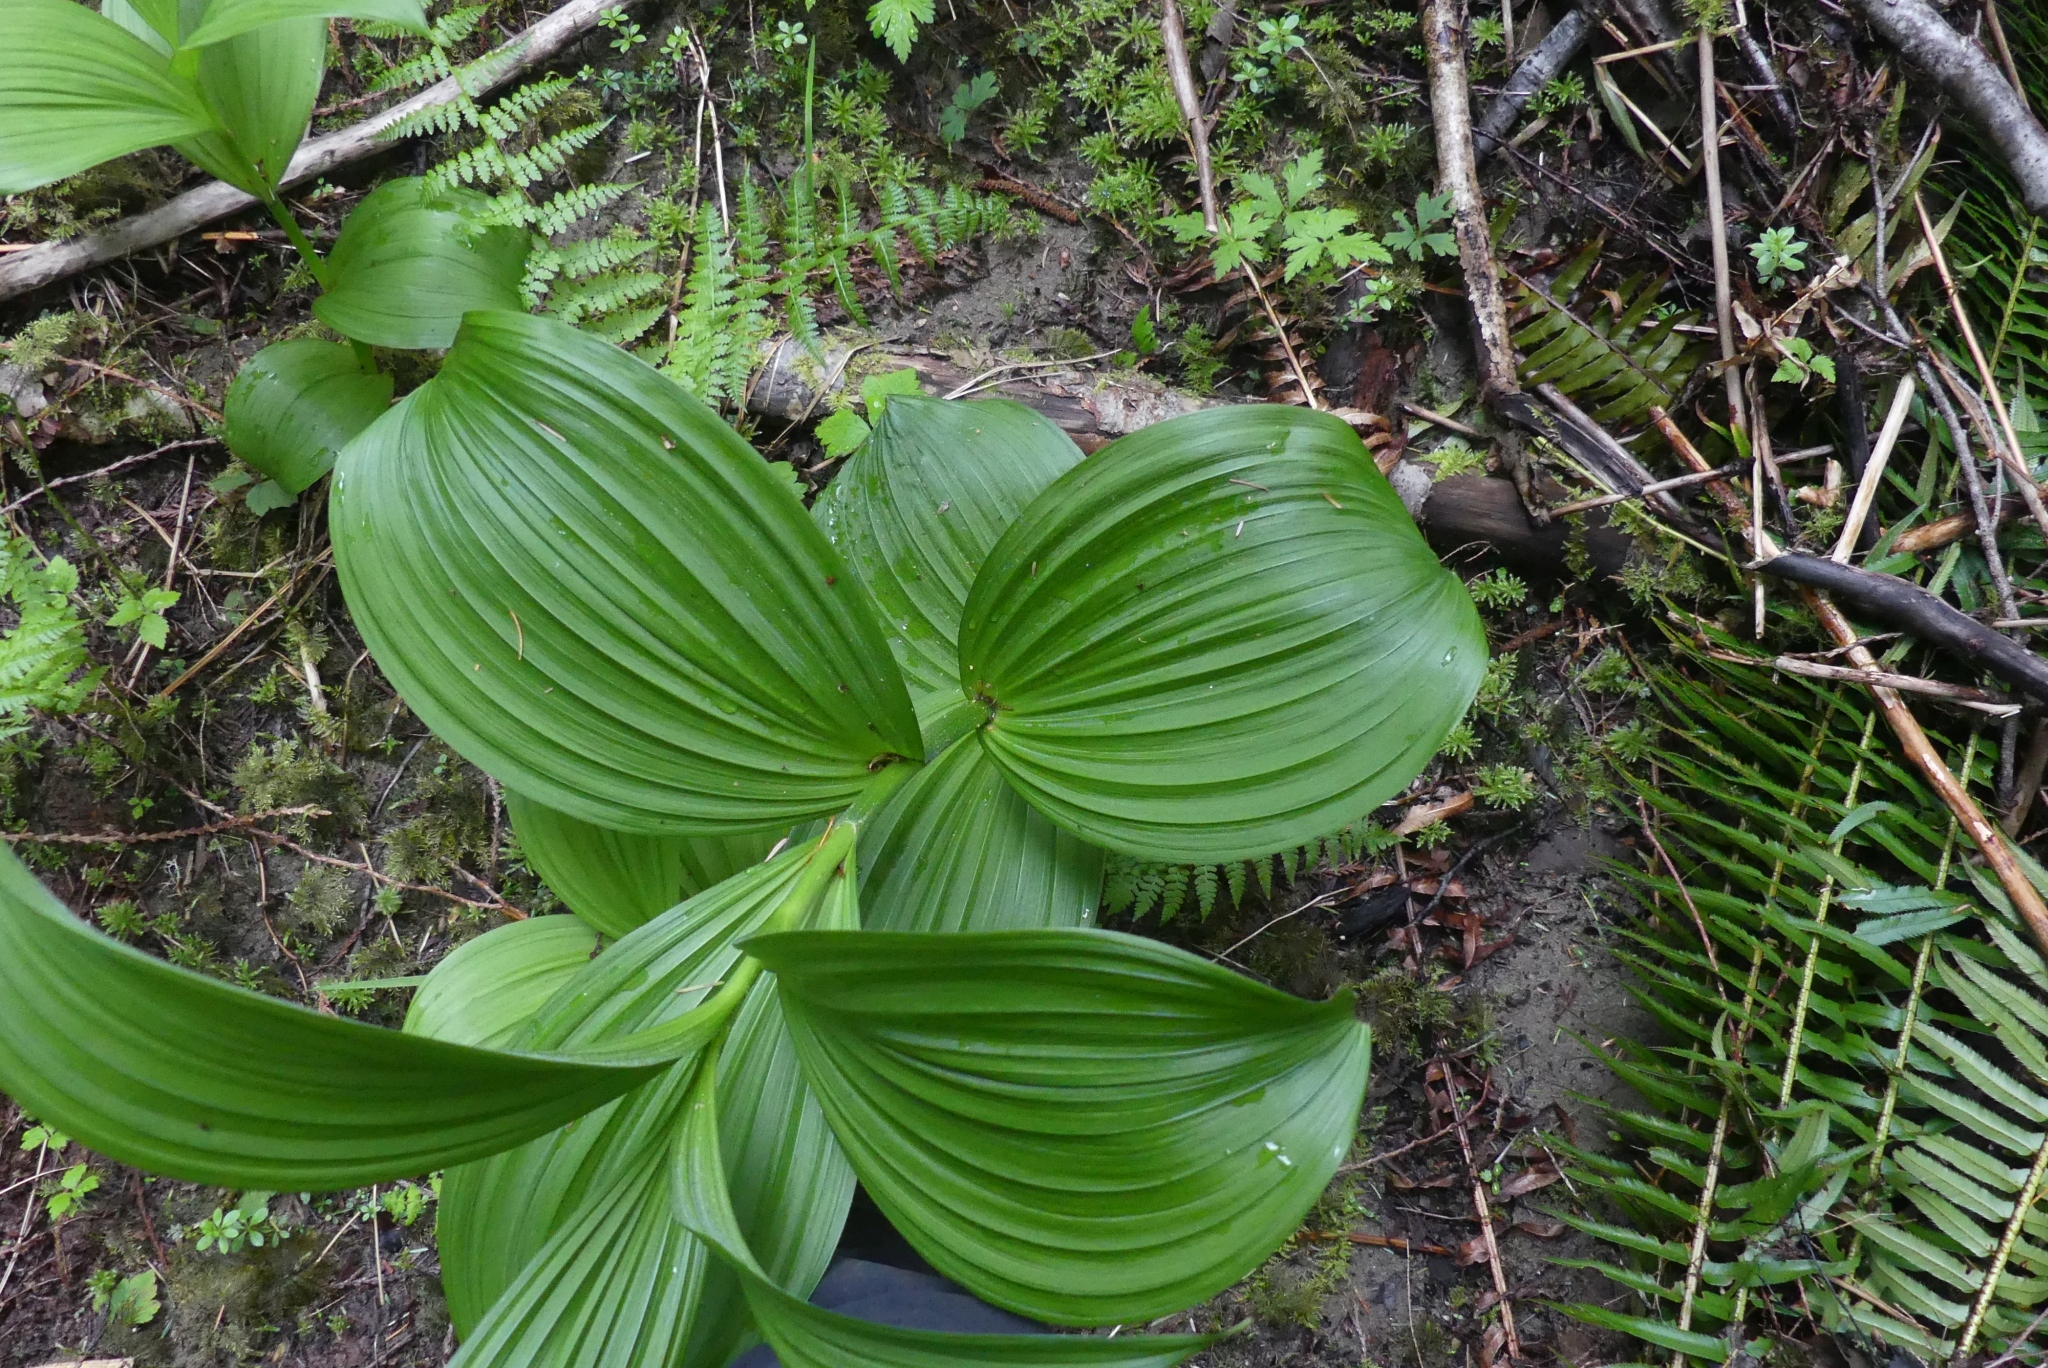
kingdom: Plantae
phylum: Tracheophyta
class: Liliopsida
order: Liliales
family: Melanthiaceae
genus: Veratrum
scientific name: Veratrum viride
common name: American false hellebore
